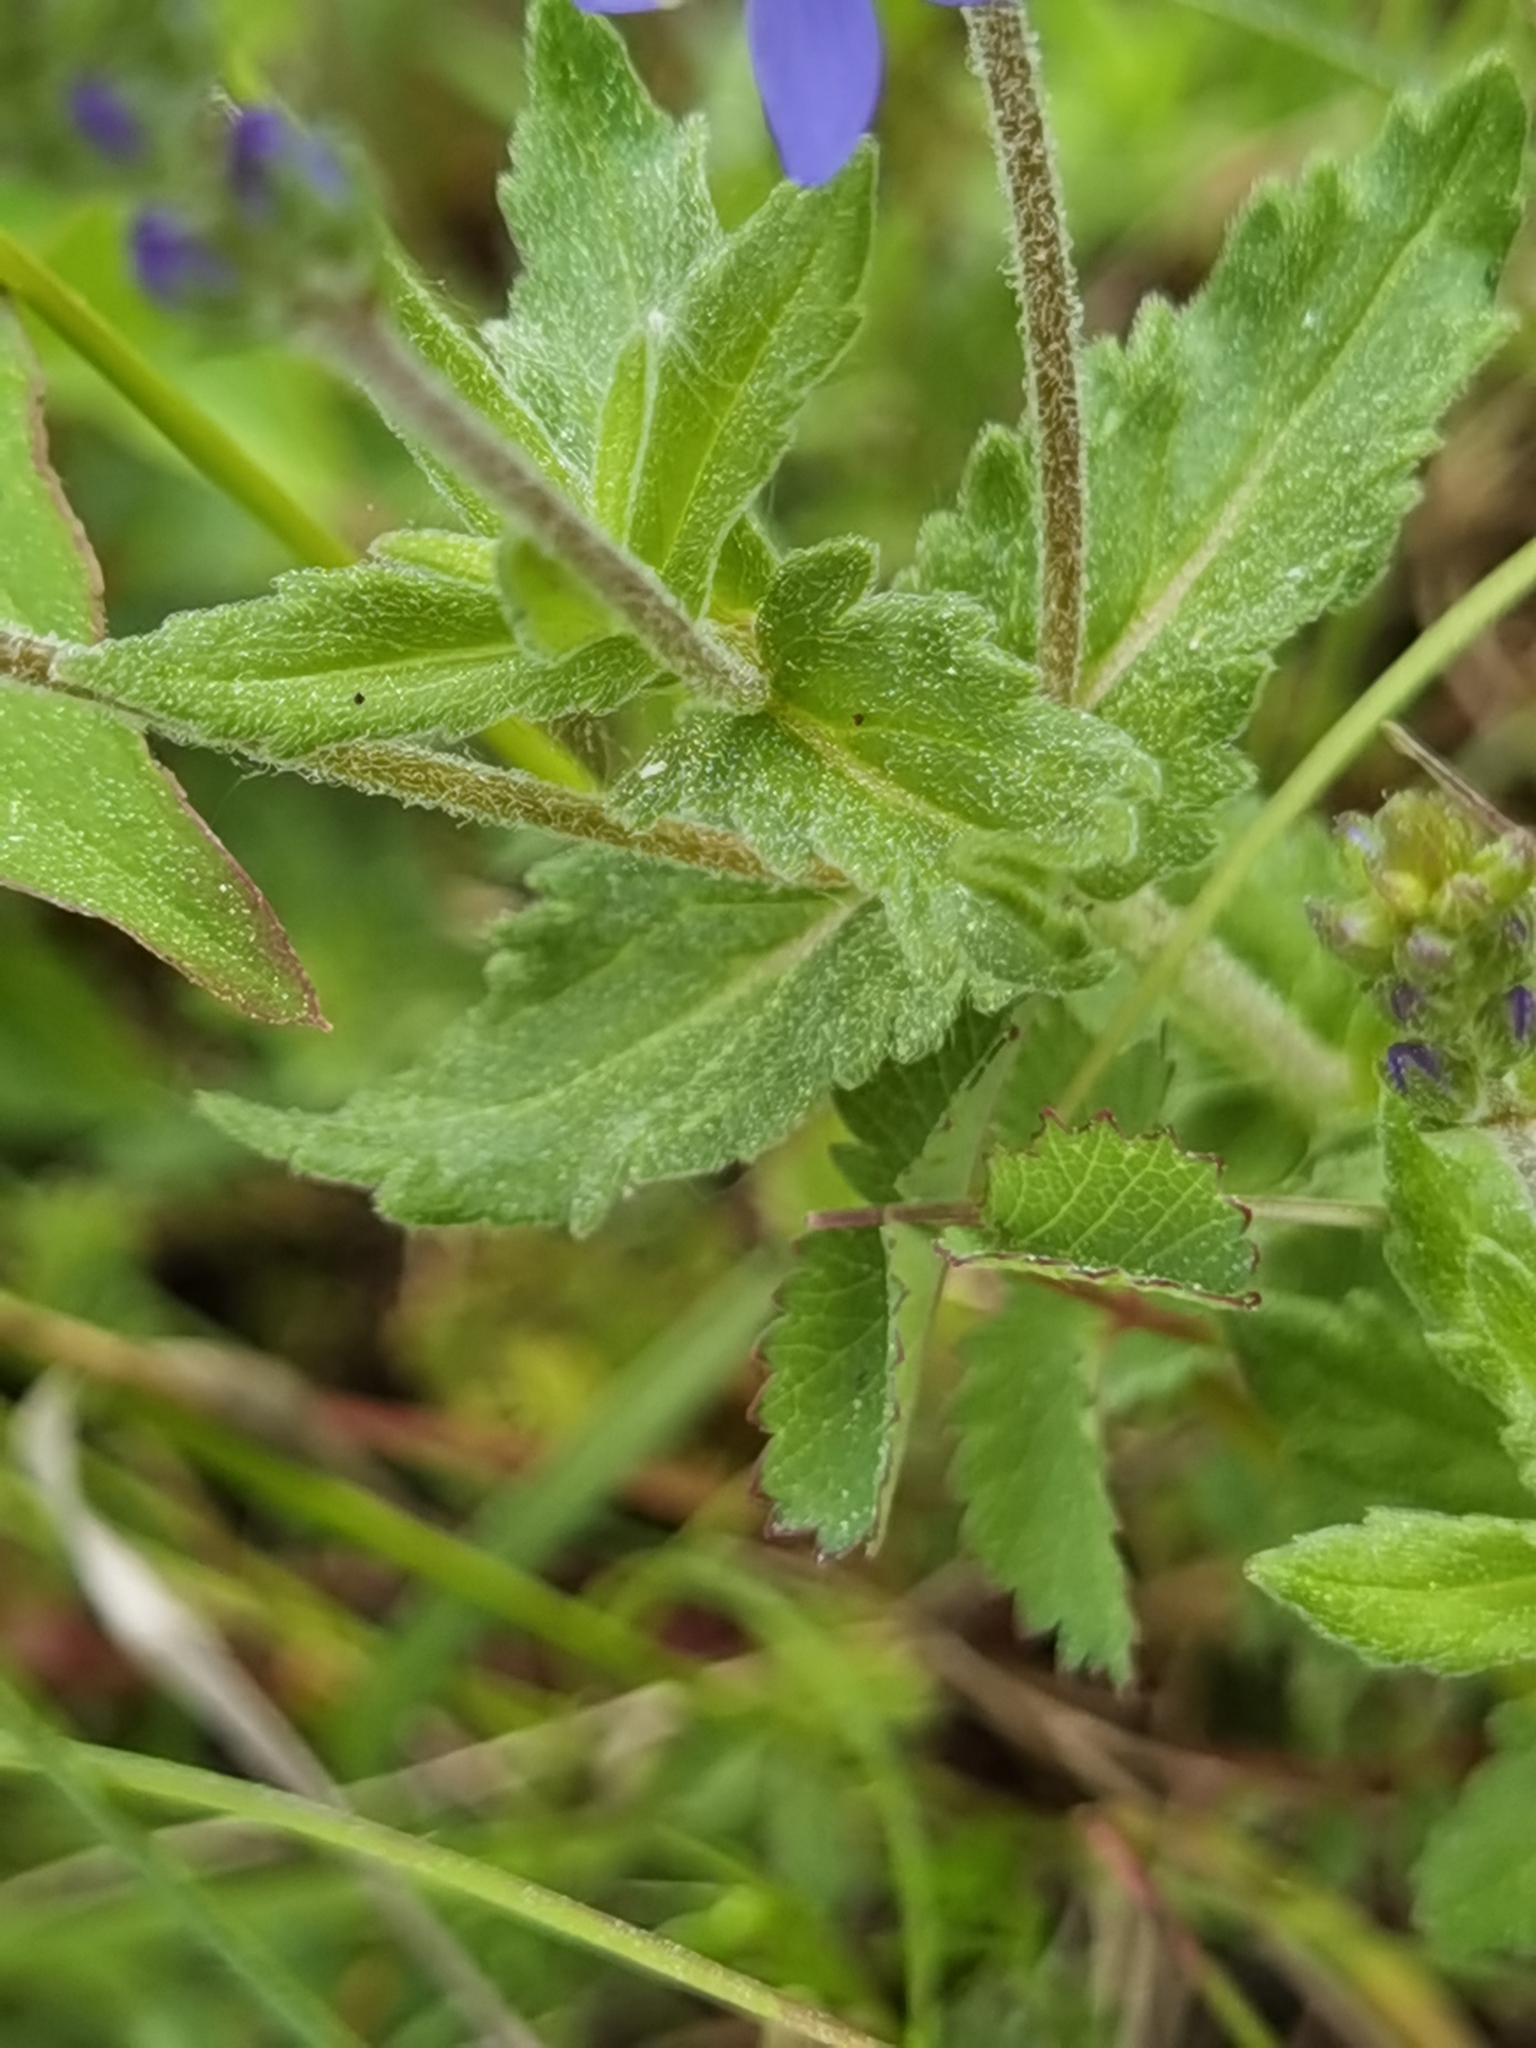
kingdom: Plantae
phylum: Tracheophyta
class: Magnoliopsida
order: Lamiales
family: Plantaginaceae
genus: Veronica
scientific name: Veronica teucrium
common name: Large speedwell
